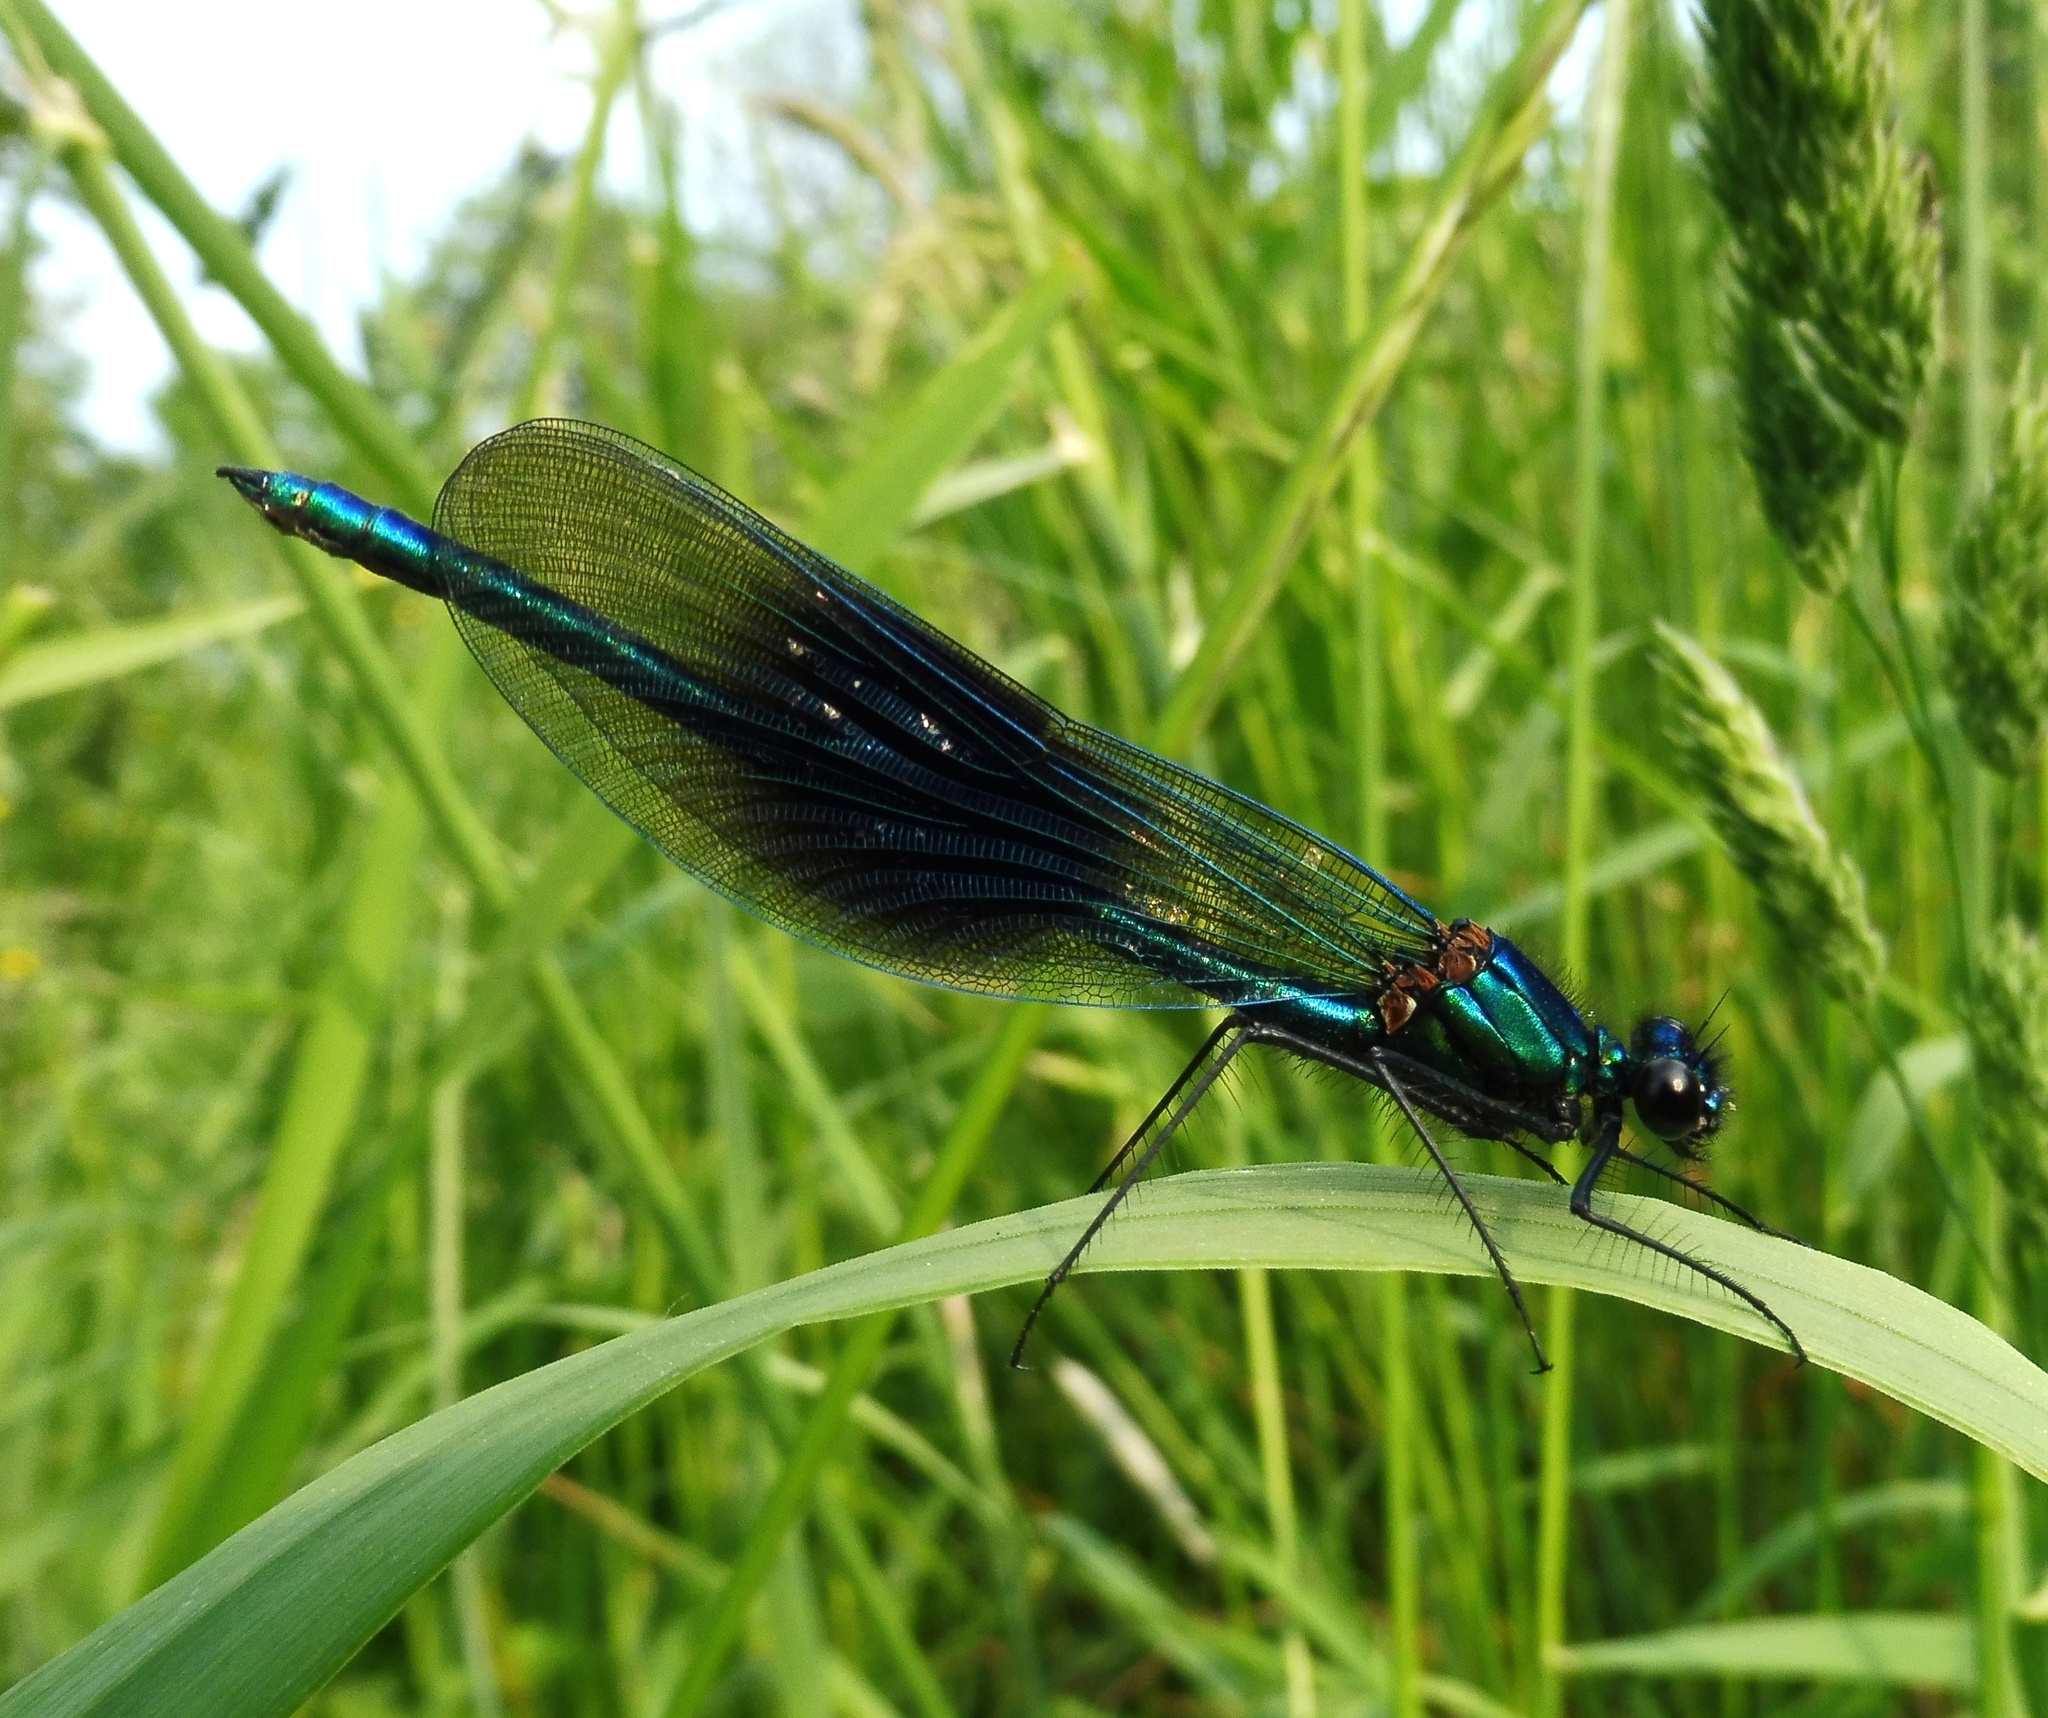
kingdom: Animalia
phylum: Arthropoda
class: Insecta
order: Odonata
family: Calopterygidae
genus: Calopteryx
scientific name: Calopteryx splendens
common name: Banded demoiselle
